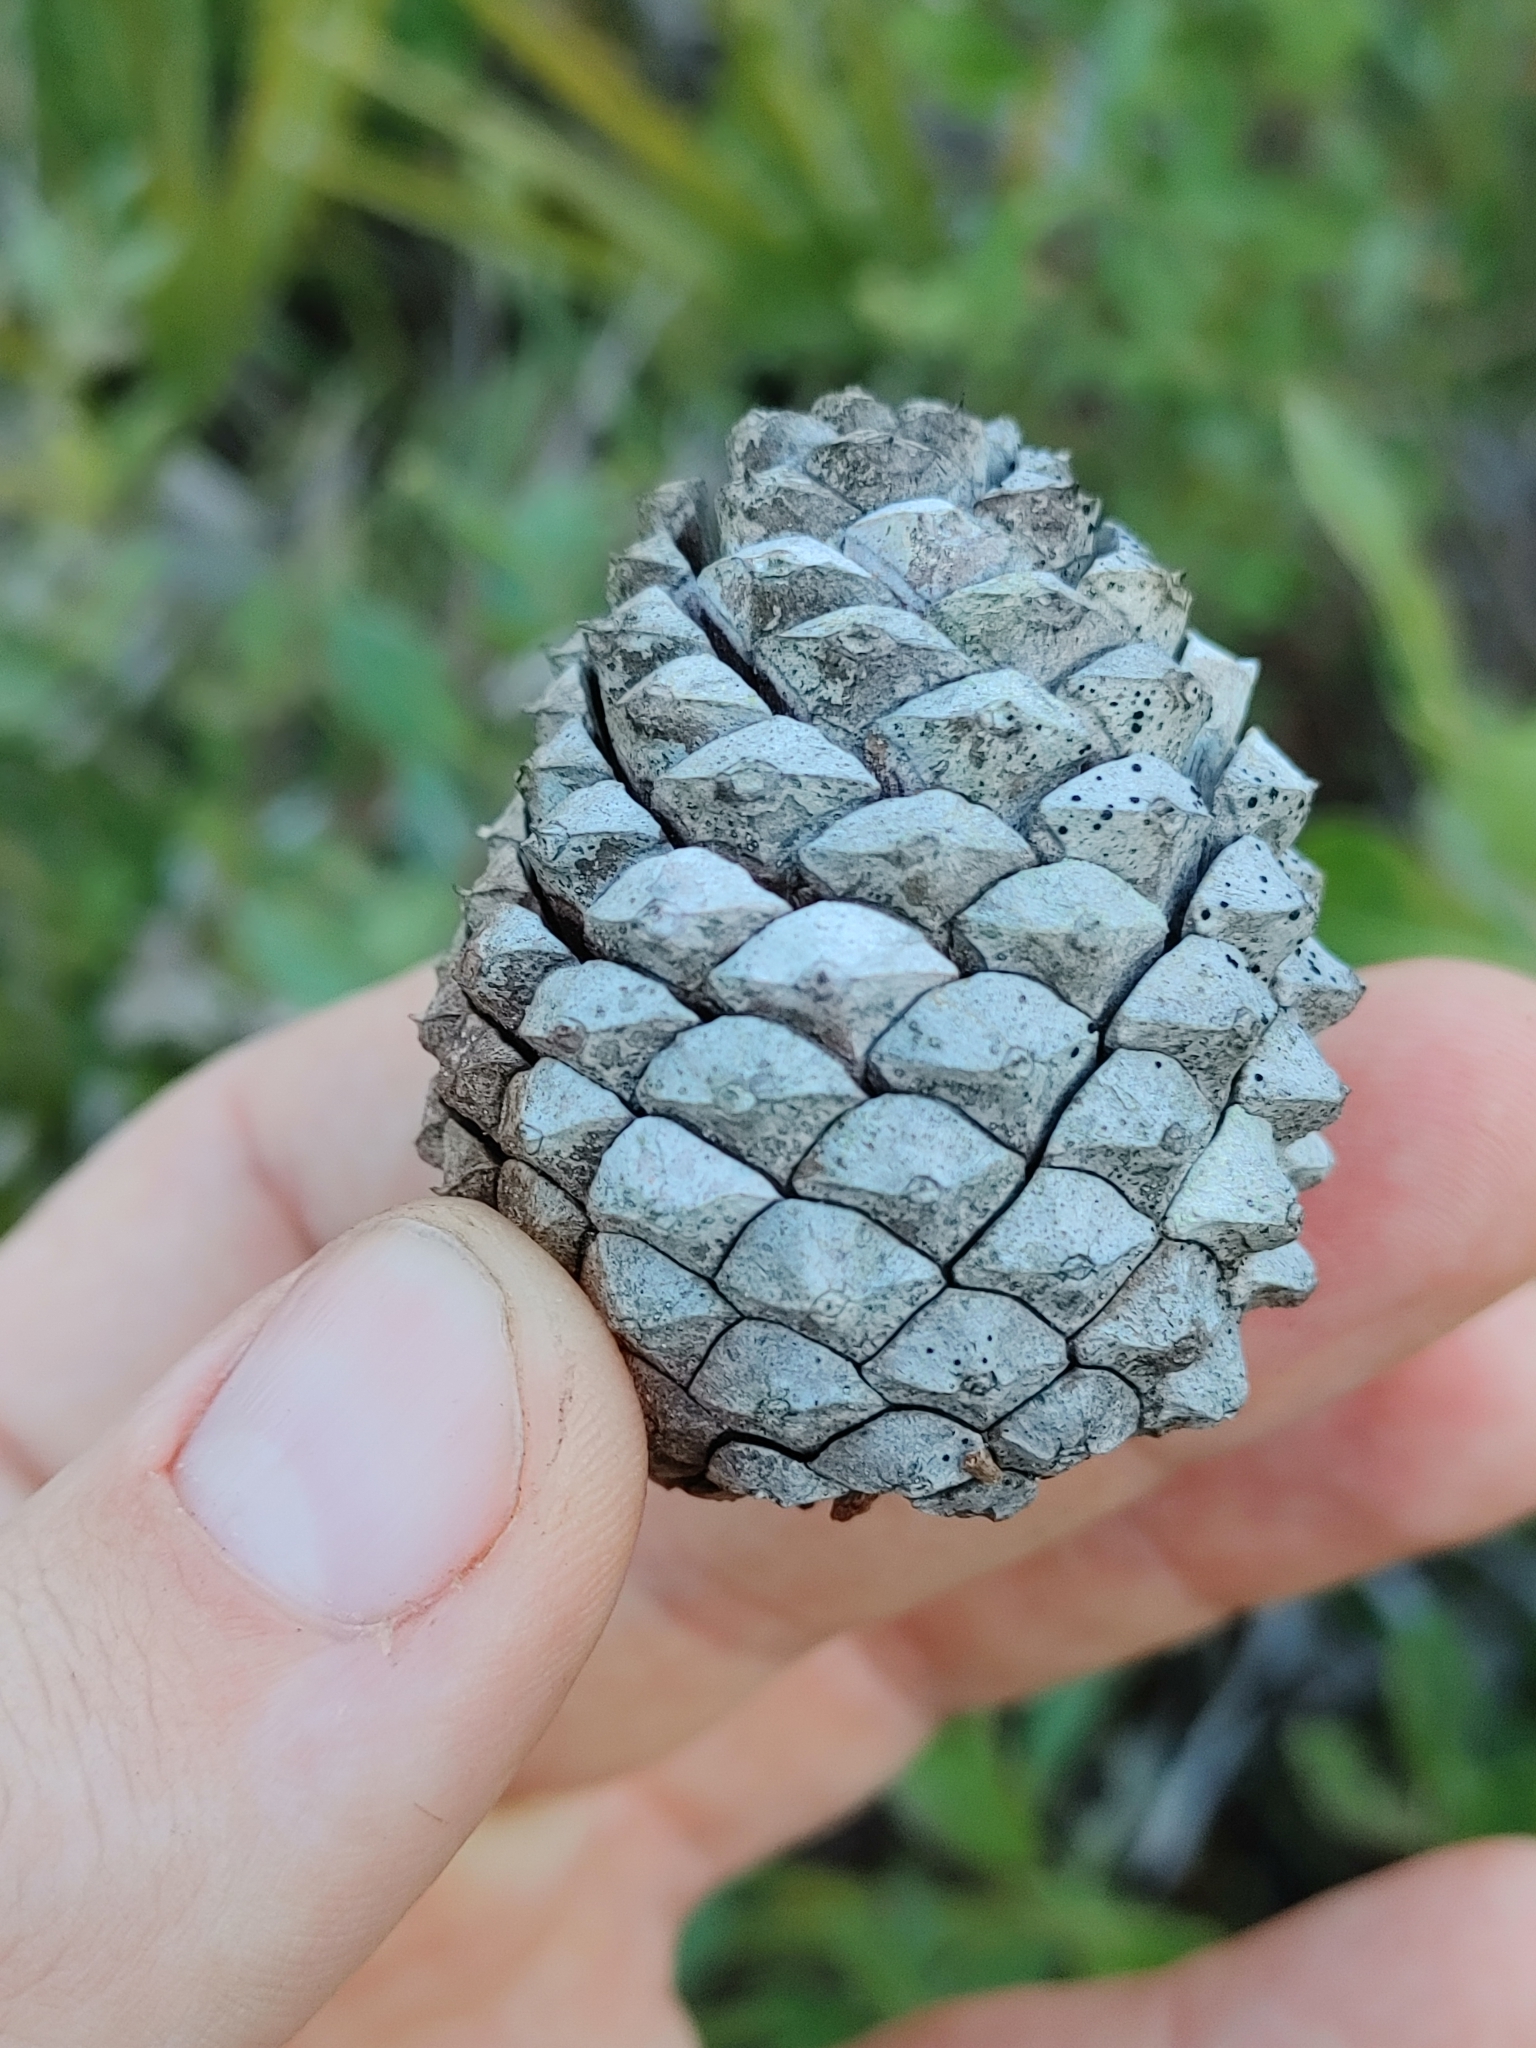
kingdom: Plantae
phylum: Tracheophyta
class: Pinopsida
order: Pinales
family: Pinaceae
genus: Pinus
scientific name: Pinus serotina
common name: Marsh pine
